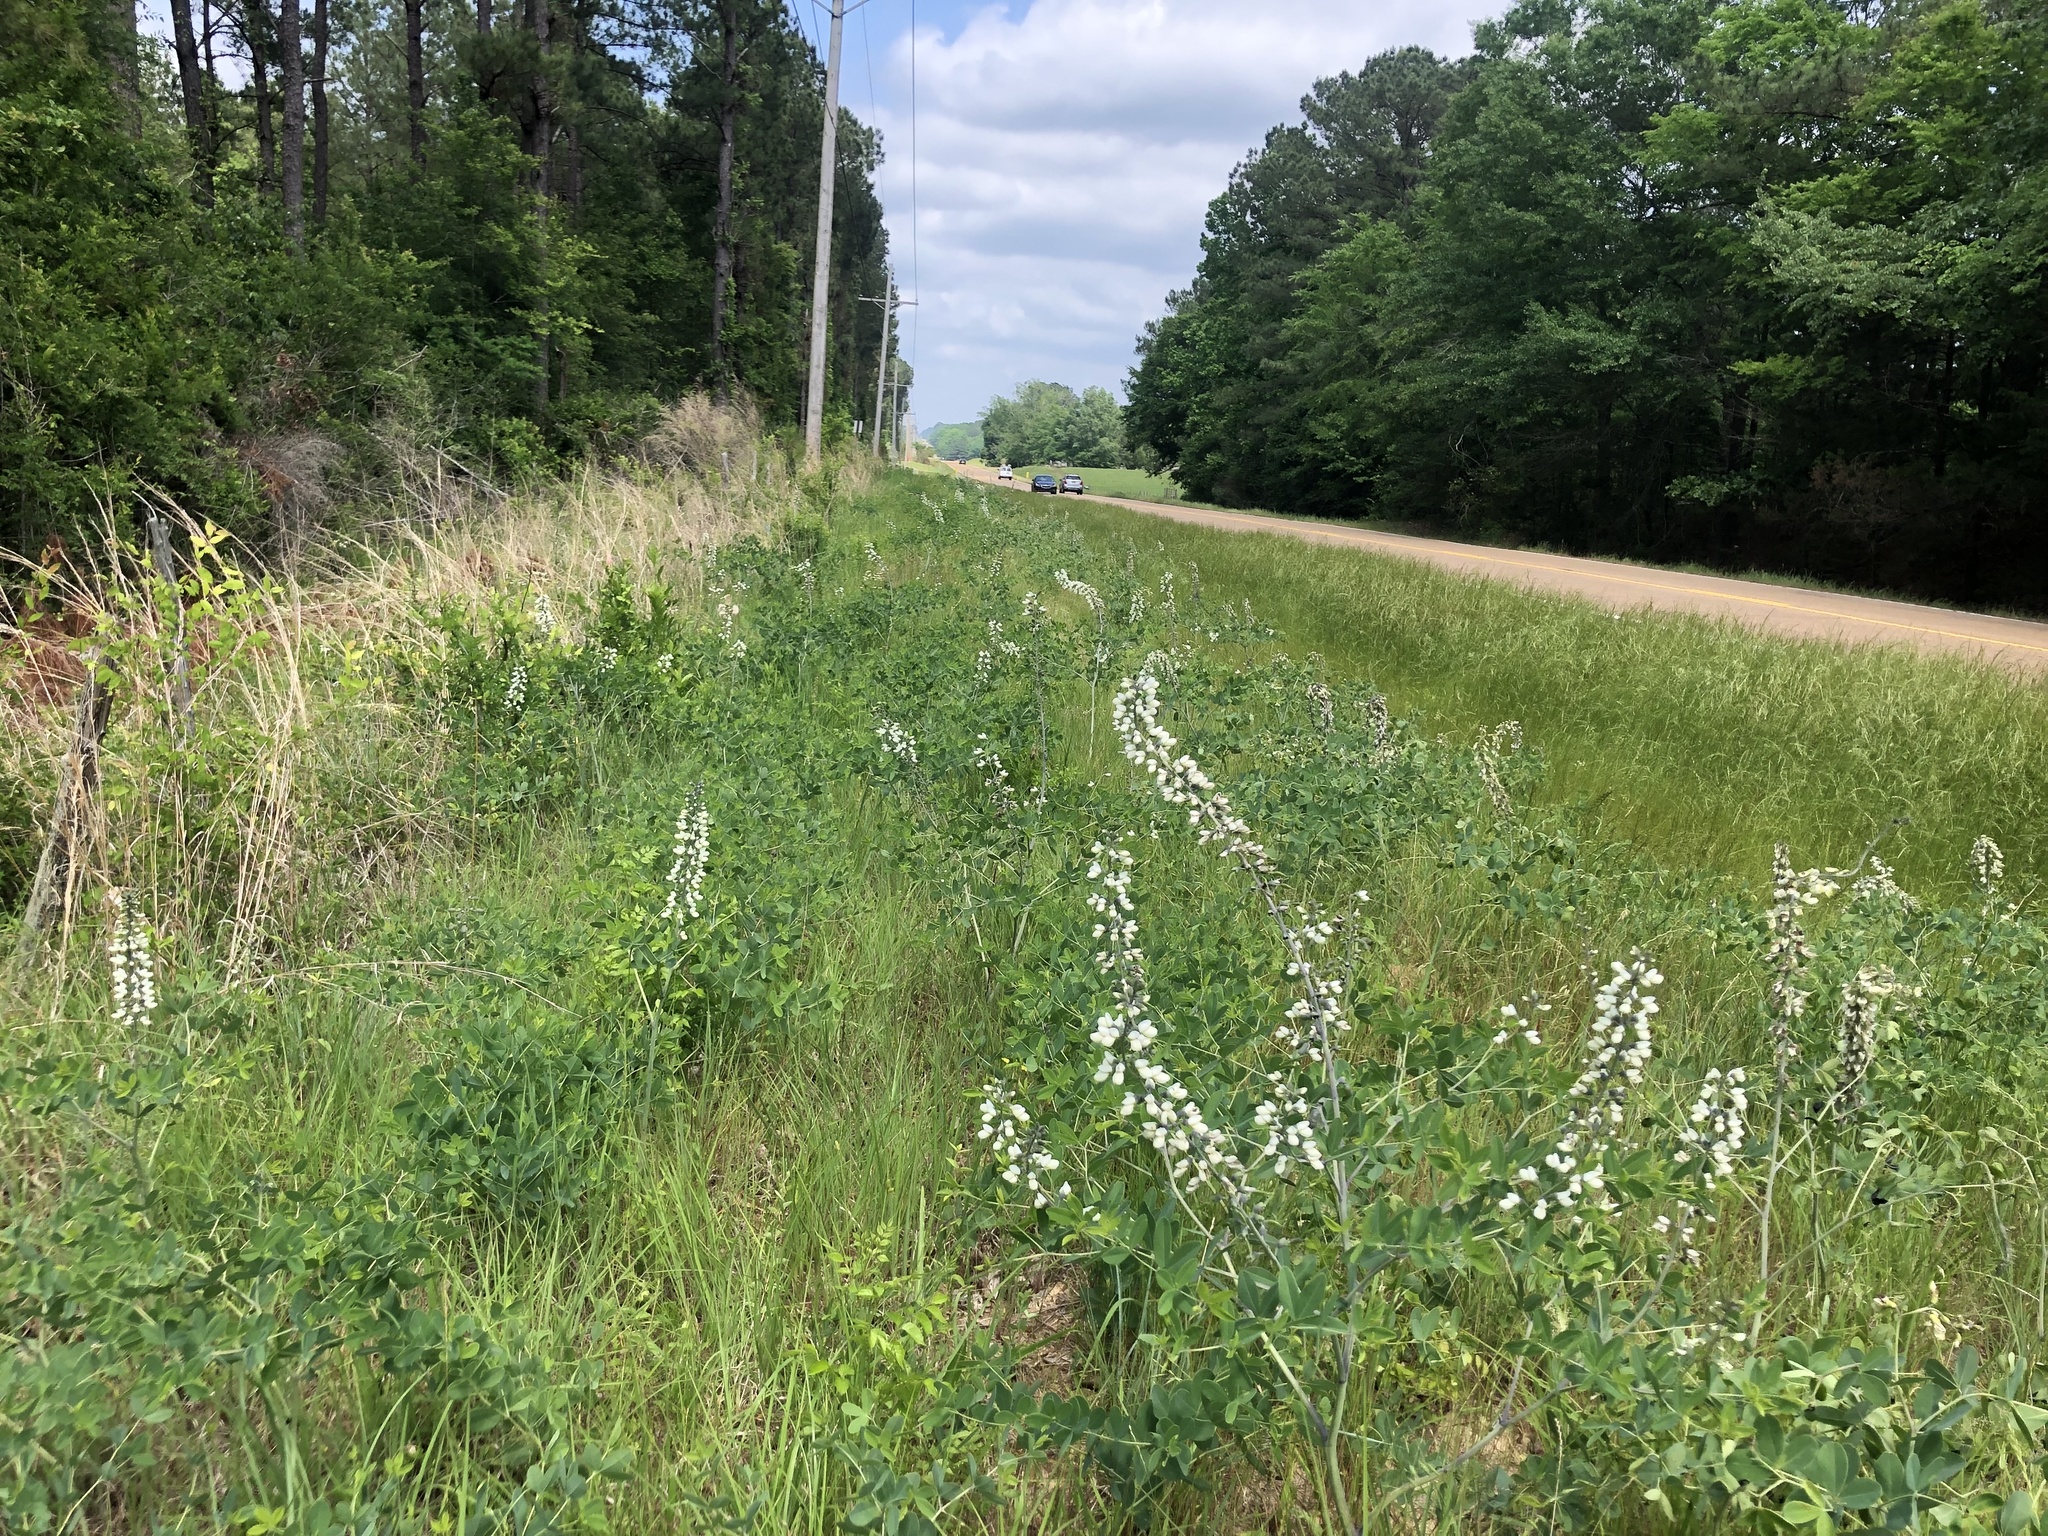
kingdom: Plantae
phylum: Tracheophyta
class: Magnoliopsida
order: Fabales
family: Fabaceae
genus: Baptisia
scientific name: Baptisia alba
